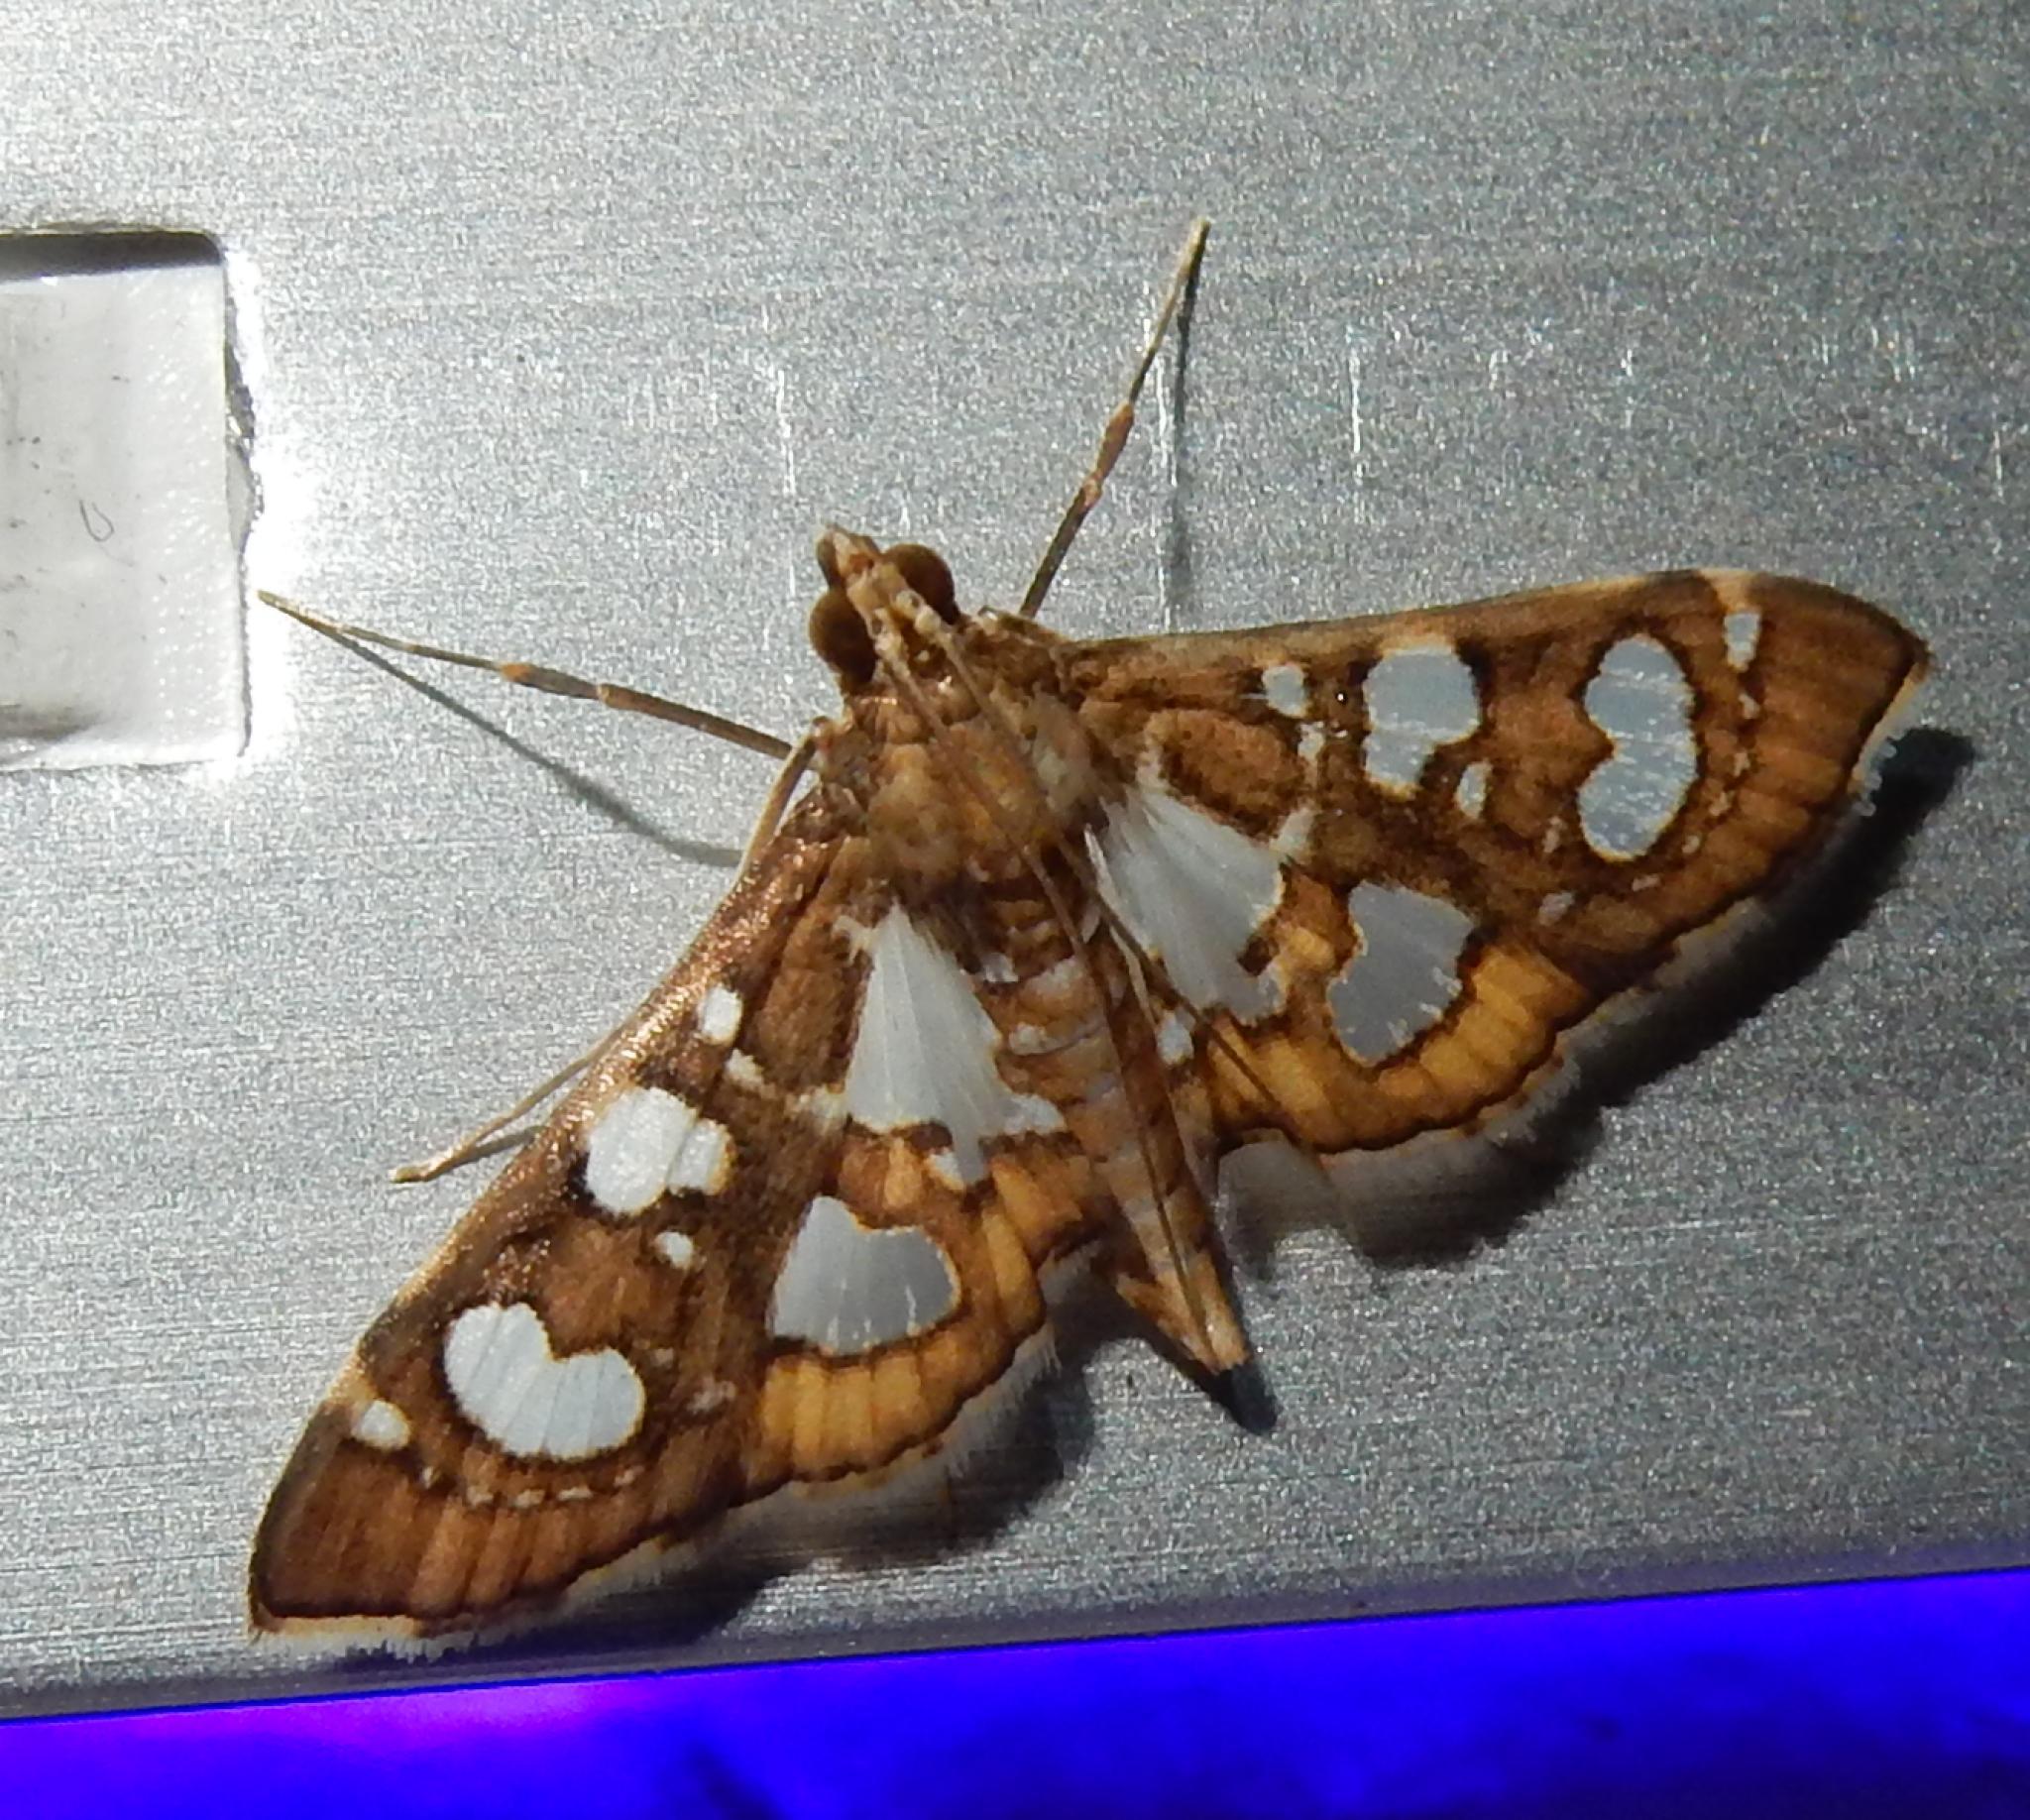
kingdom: Animalia
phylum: Arthropoda
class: Insecta
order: Lepidoptera
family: Crambidae
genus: Nausinoe
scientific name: Nausinoe quadrinalis
